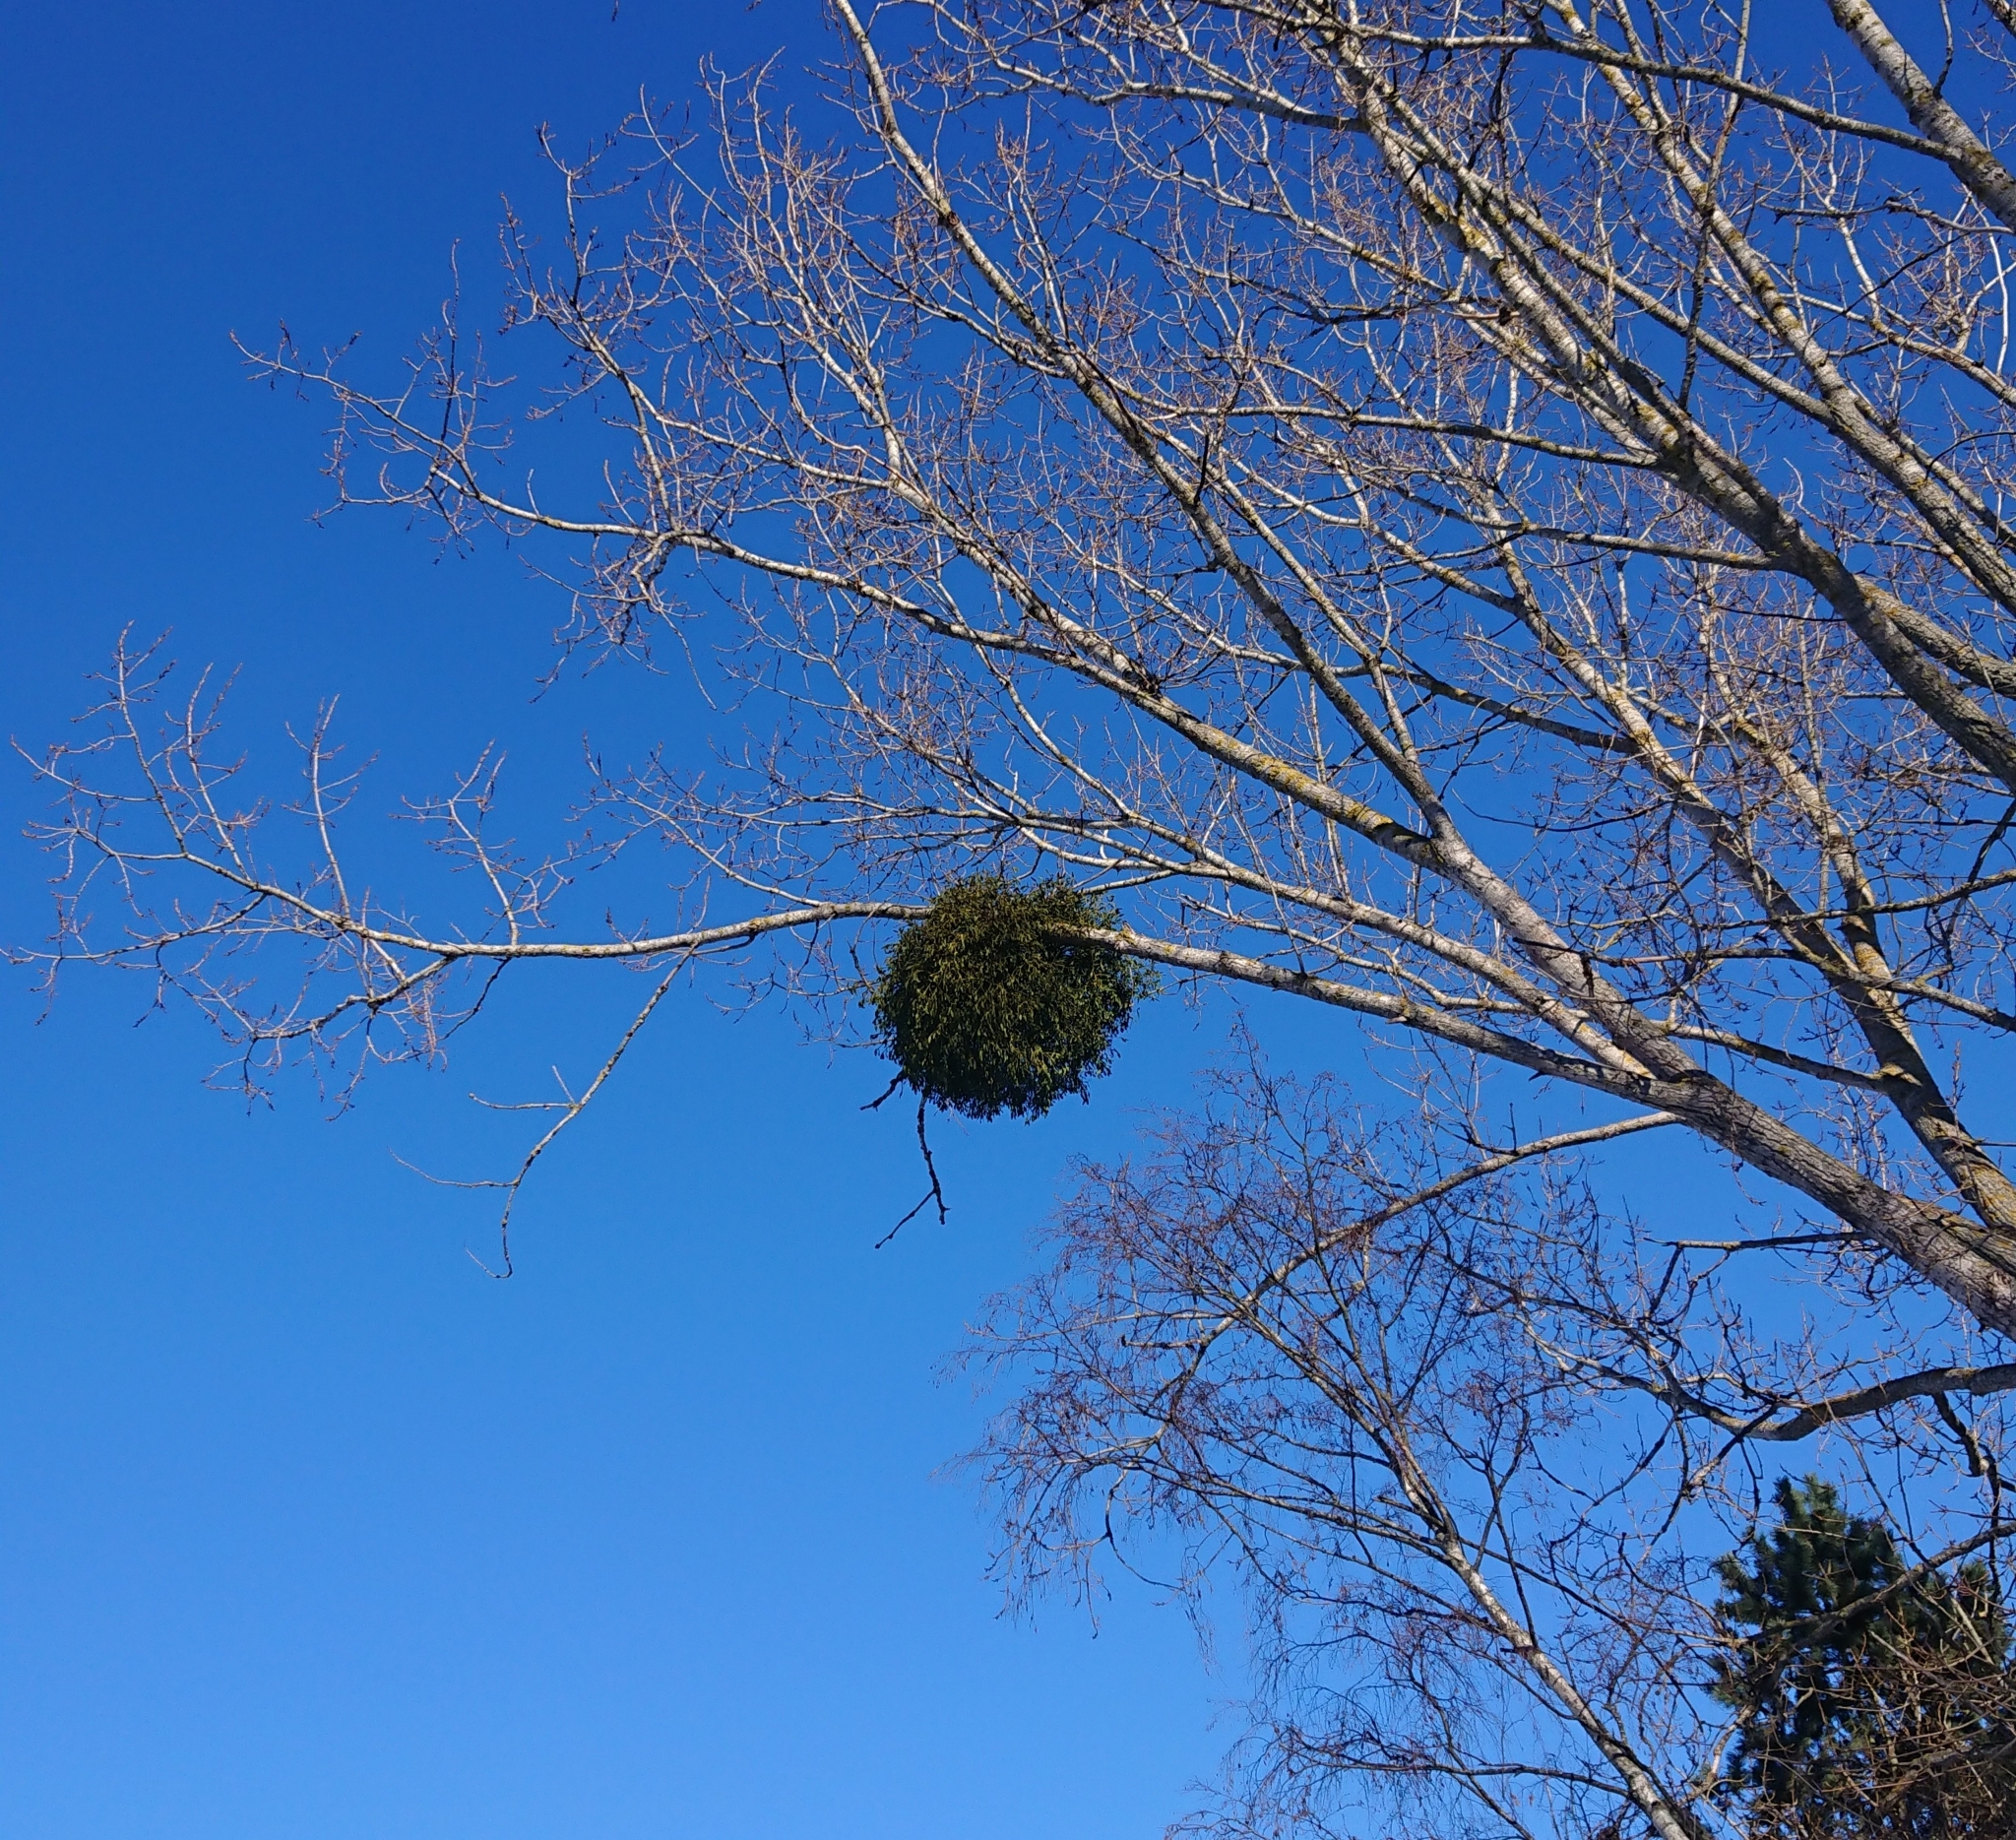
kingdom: Plantae
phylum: Tracheophyta
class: Magnoliopsida
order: Santalales
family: Viscaceae
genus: Viscum
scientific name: Viscum album
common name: Mistletoe
